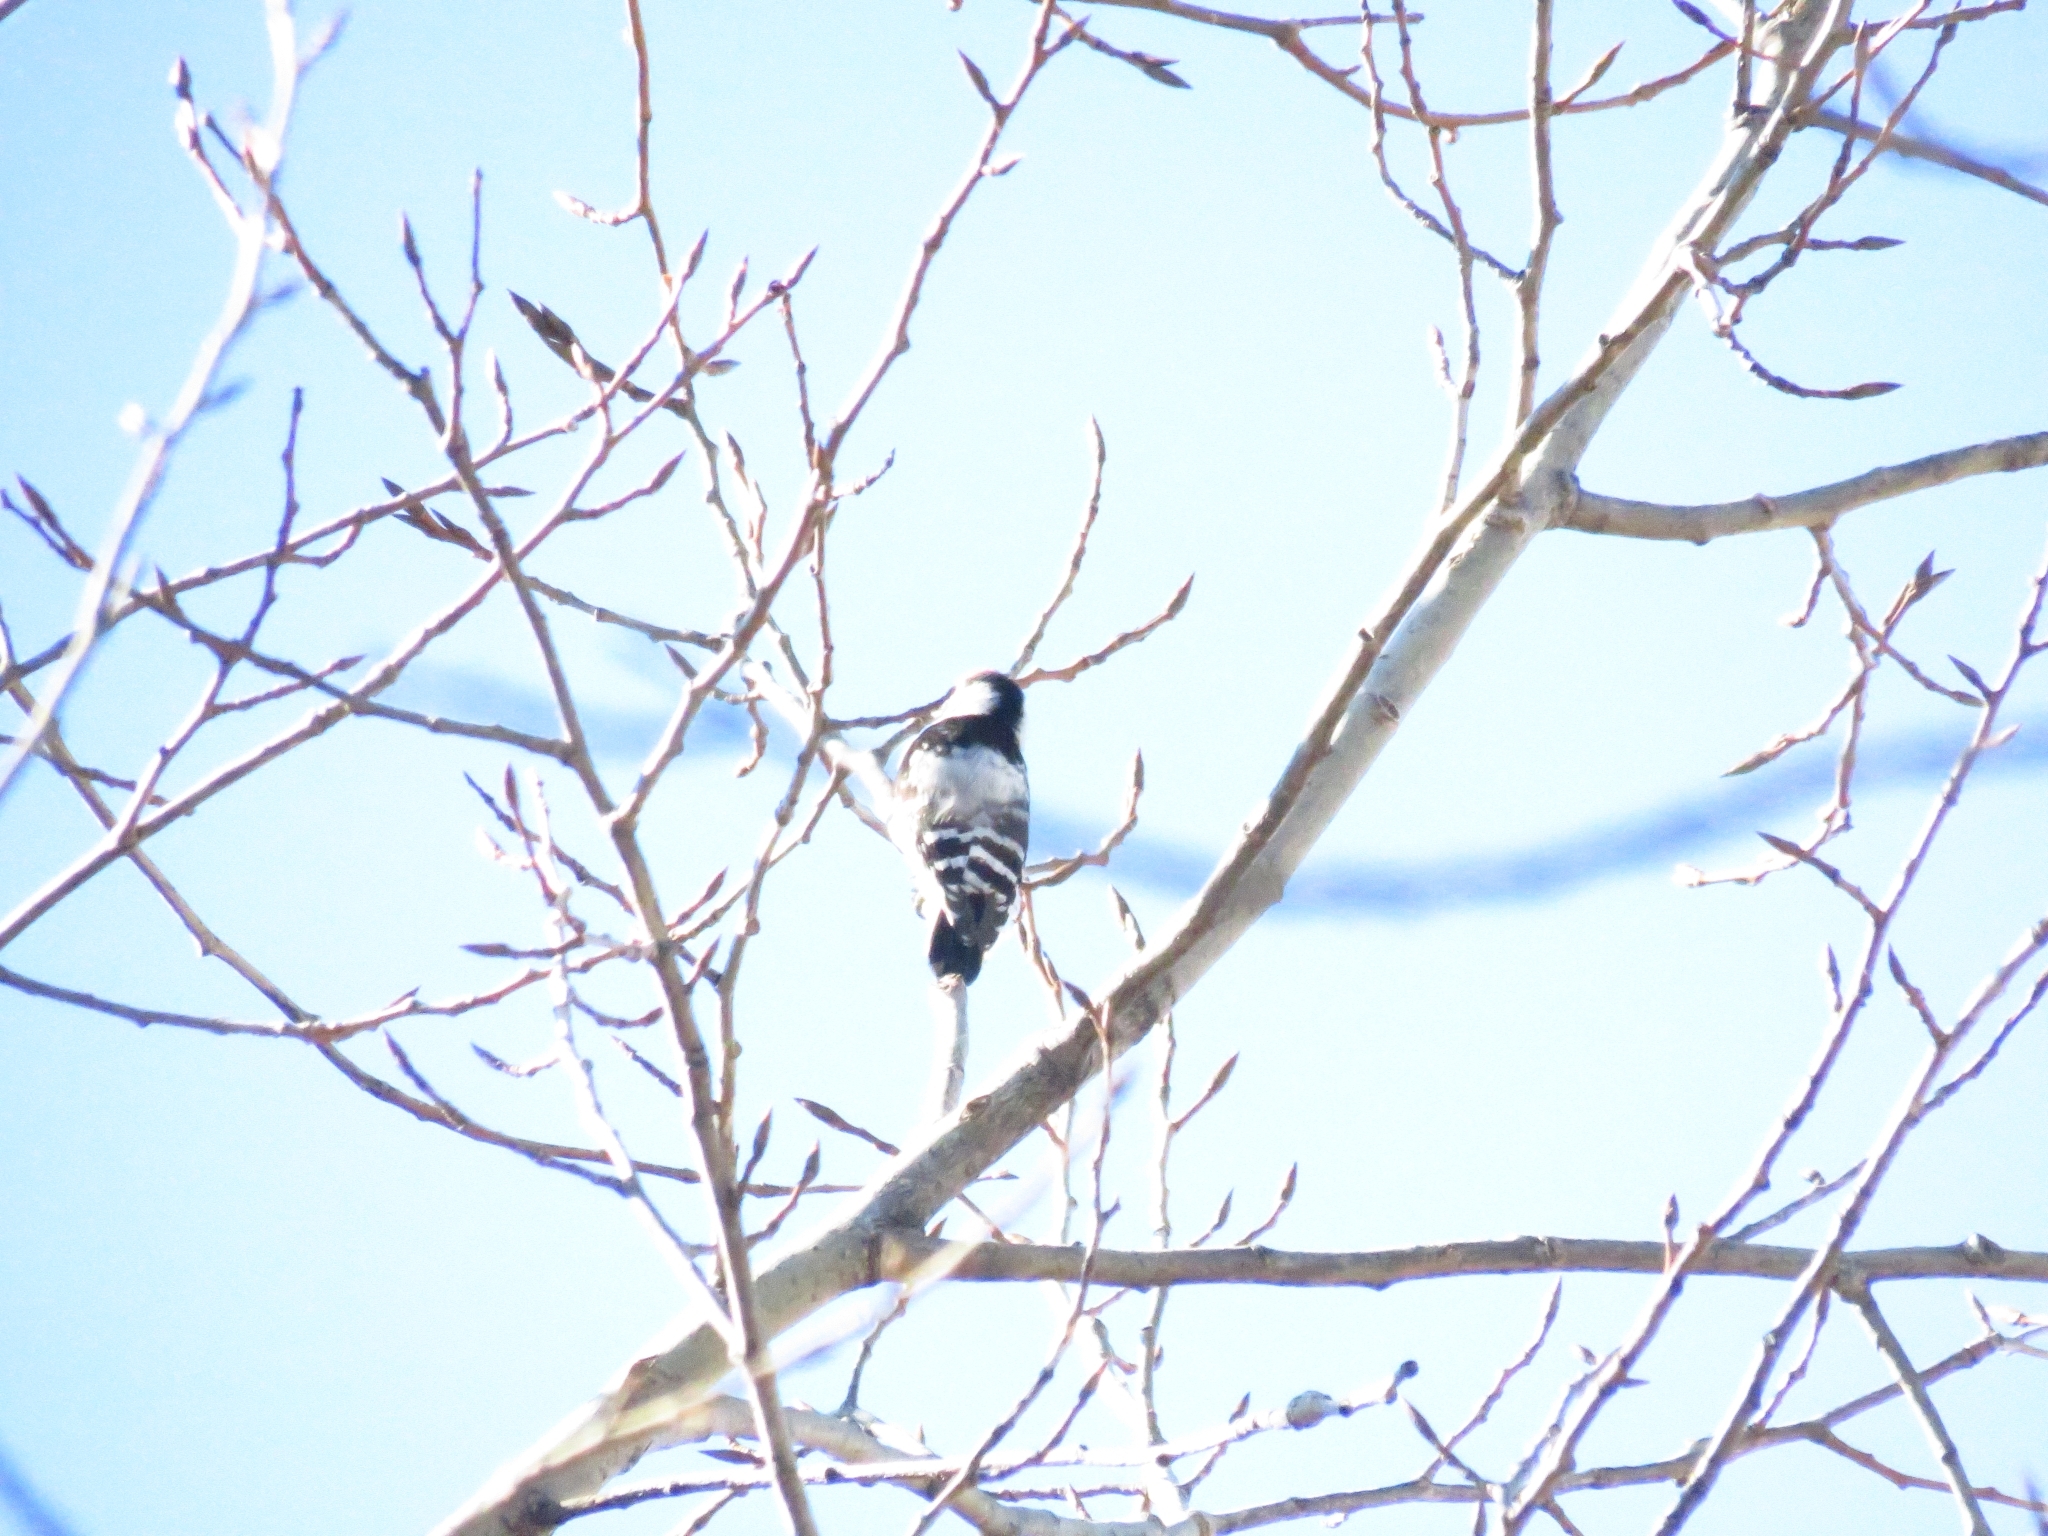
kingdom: Animalia
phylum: Chordata
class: Aves
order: Piciformes
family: Picidae
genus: Dryobates
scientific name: Dryobates minor
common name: Lesser spotted woodpecker
